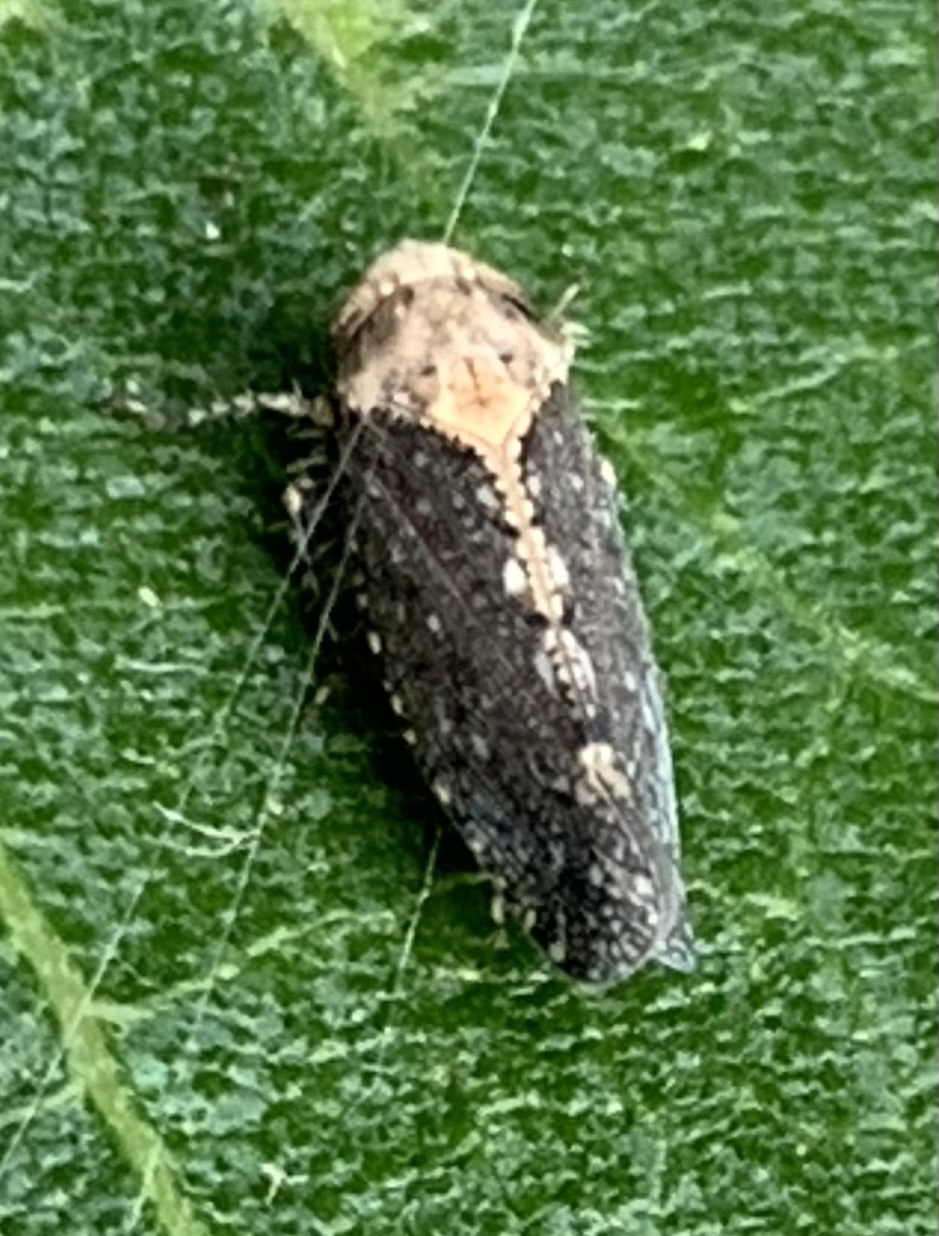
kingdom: Animalia
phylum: Arthropoda
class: Insecta
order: Hemiptera
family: Cicadellidae
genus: Excultanus
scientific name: Excultanus excultus
